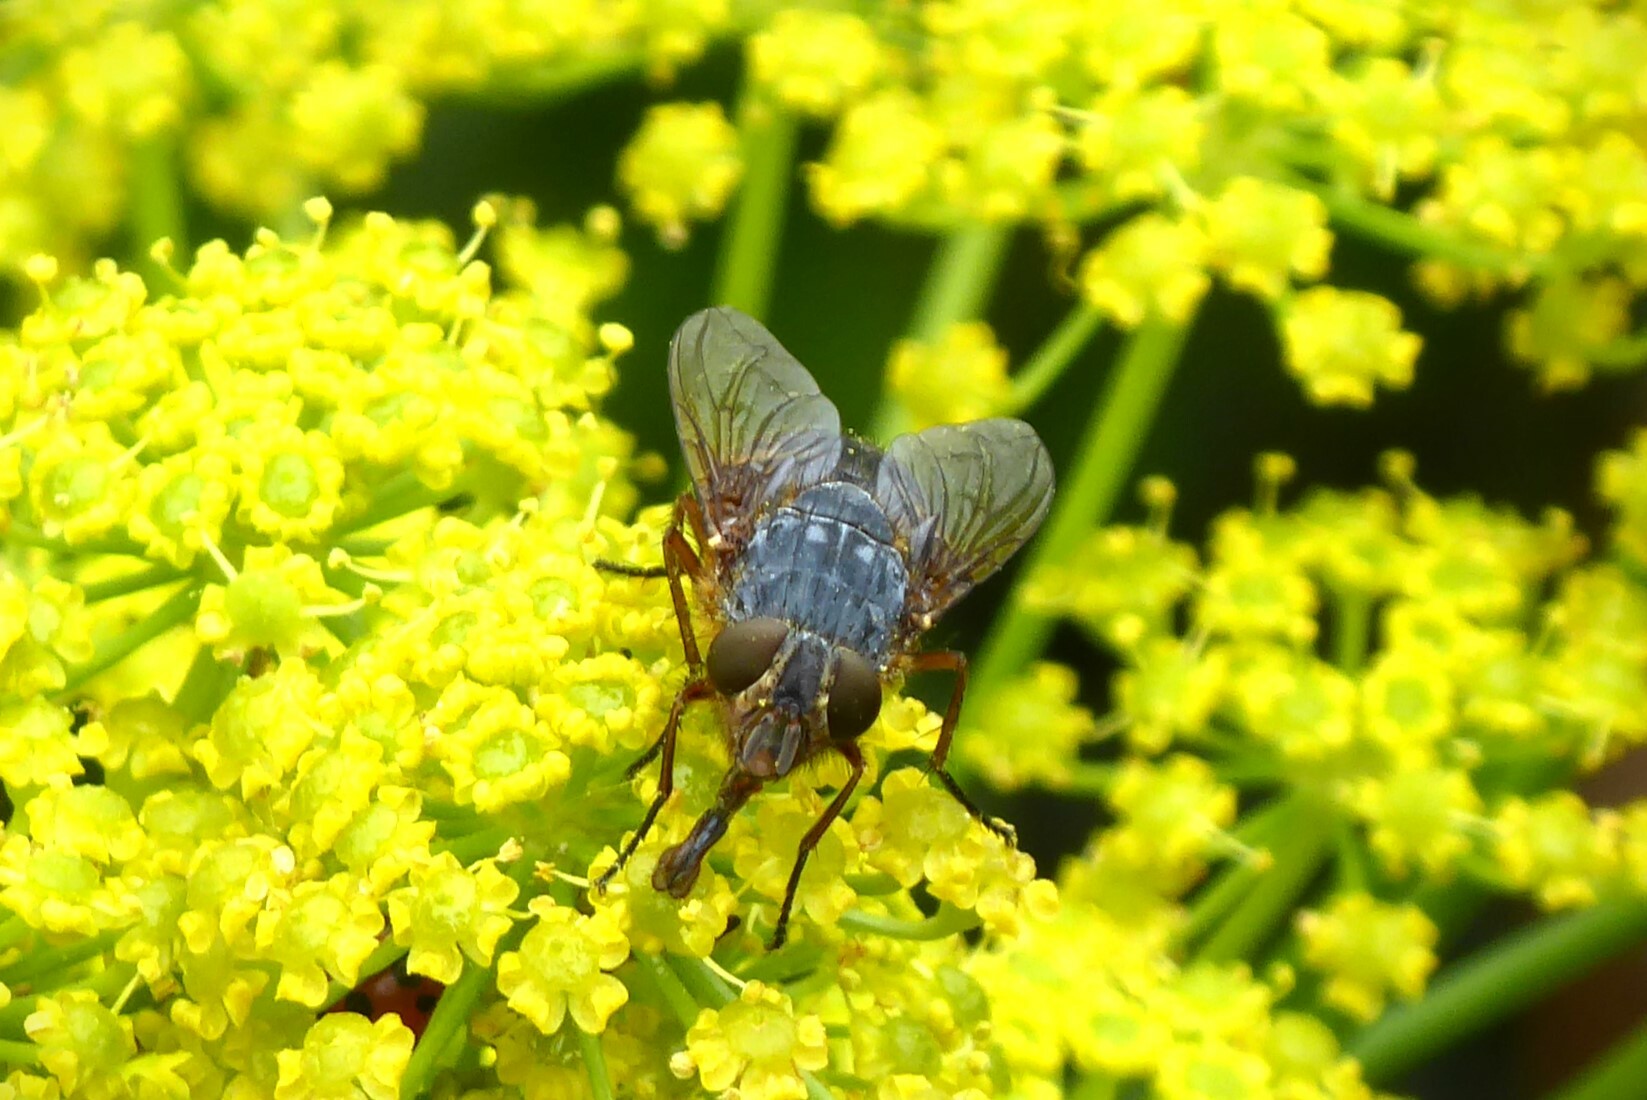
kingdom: Animalia
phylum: Arthropoda
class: Insecta
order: Diptera
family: Calliphoridae
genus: Calliphora
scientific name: Calliphora hilli
